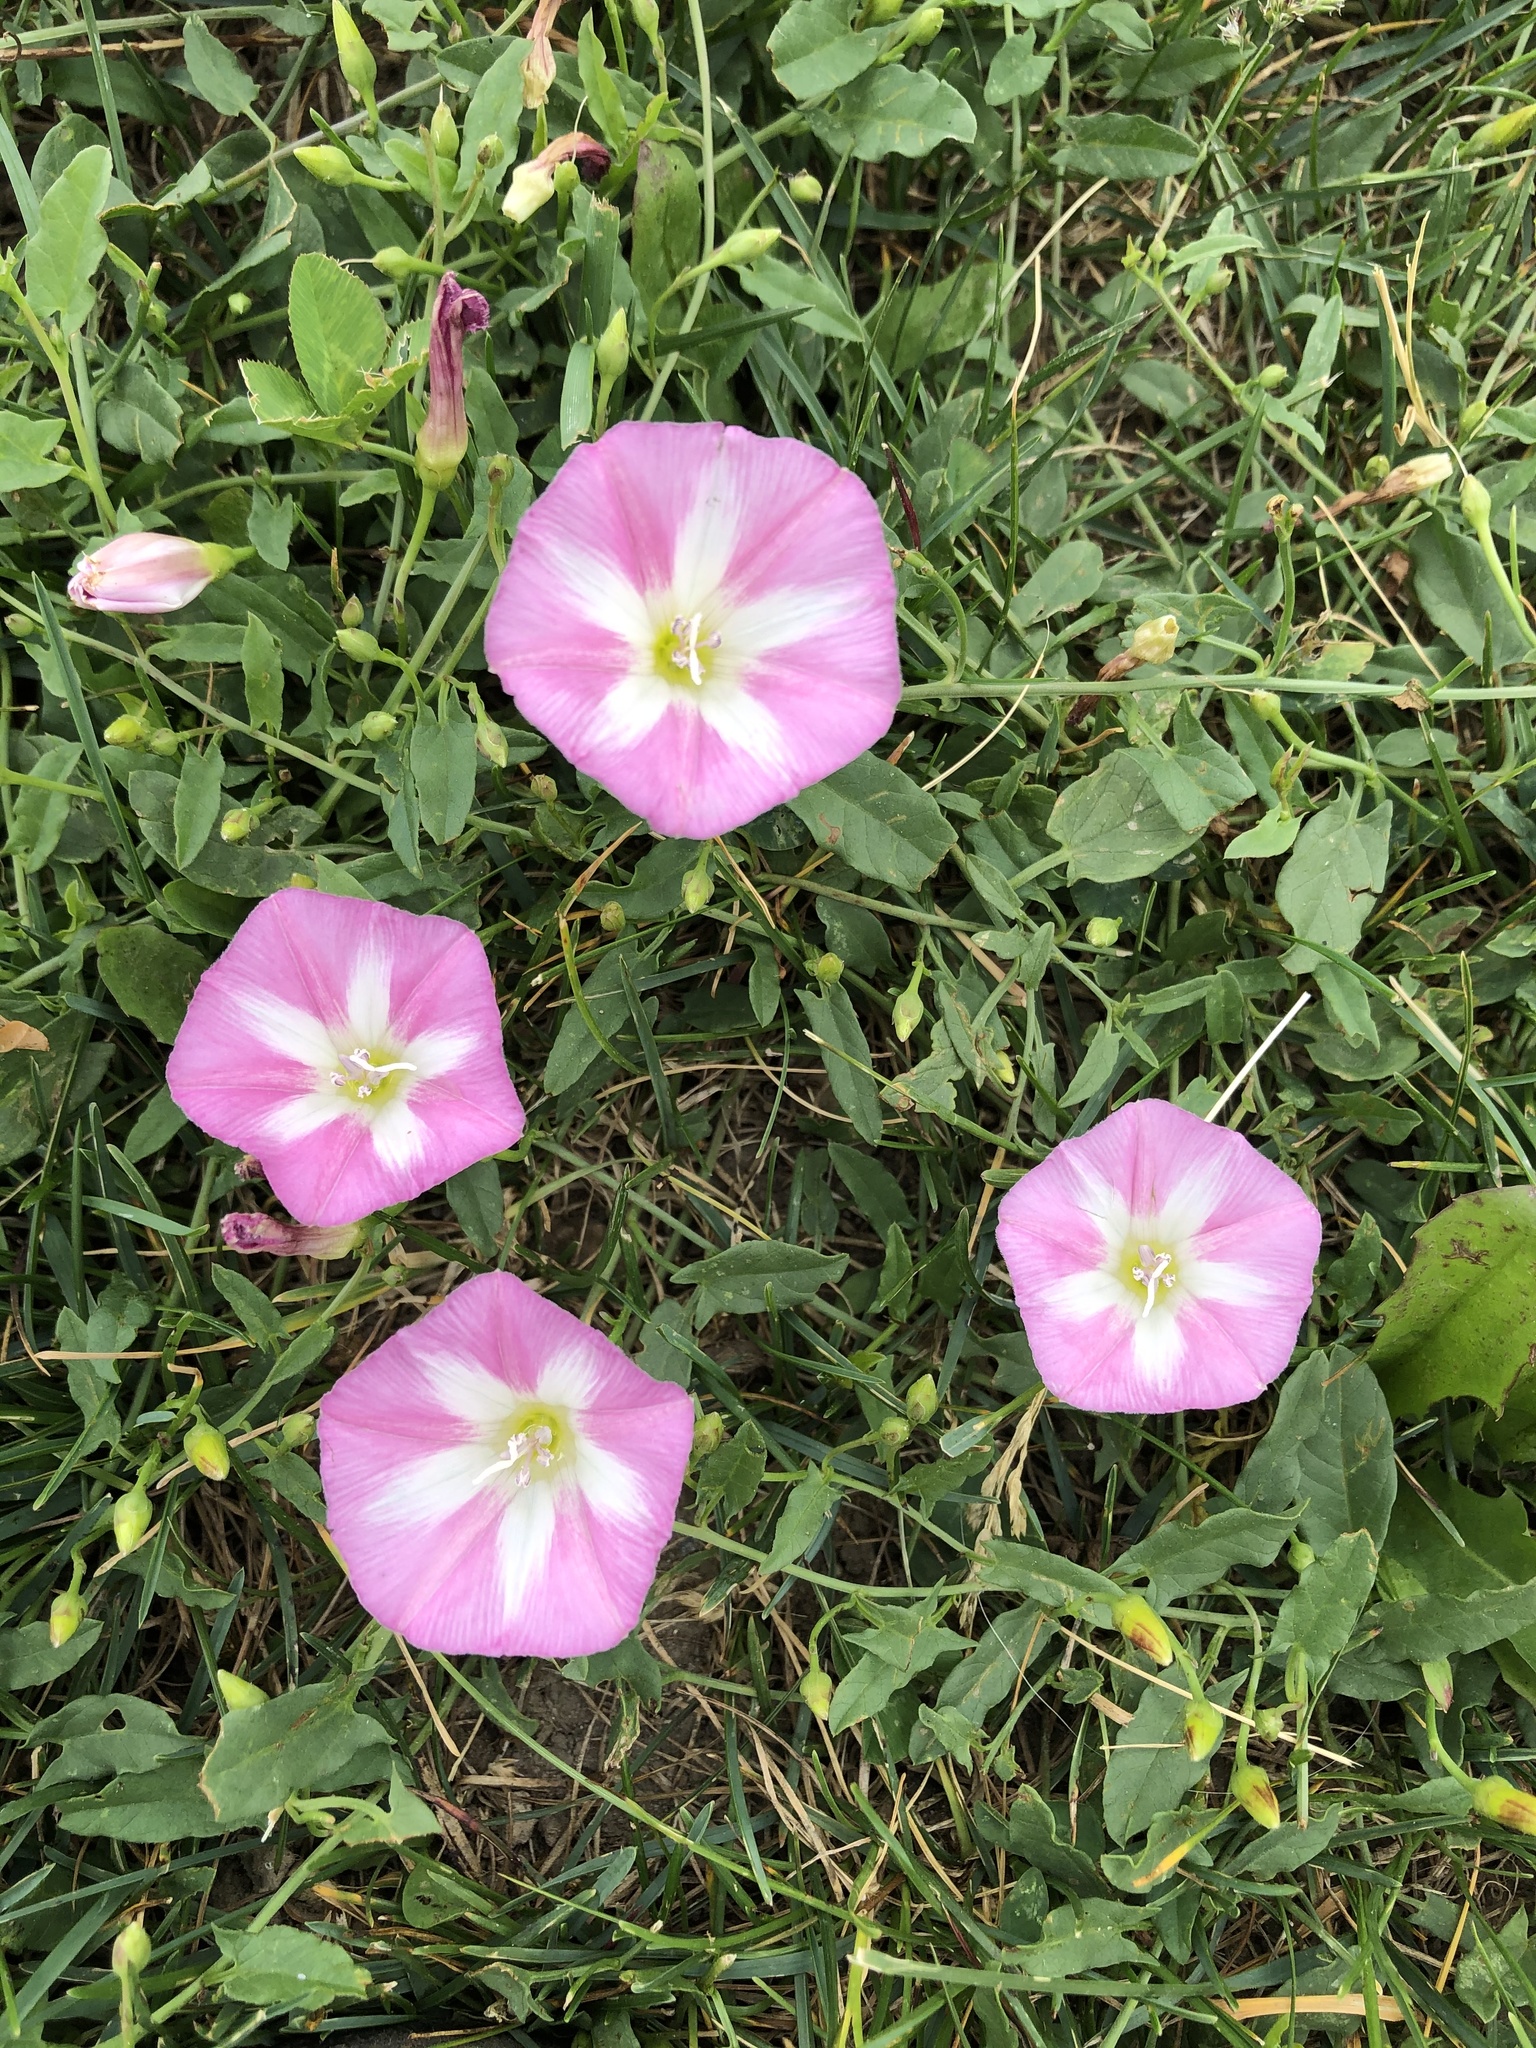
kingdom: Plantae
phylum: Tracheophyta
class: Magnoliopsida
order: Solanales
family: Convolvulaceae
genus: Convolvulus
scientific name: Convolvulus arvensis
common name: Field bindweed
